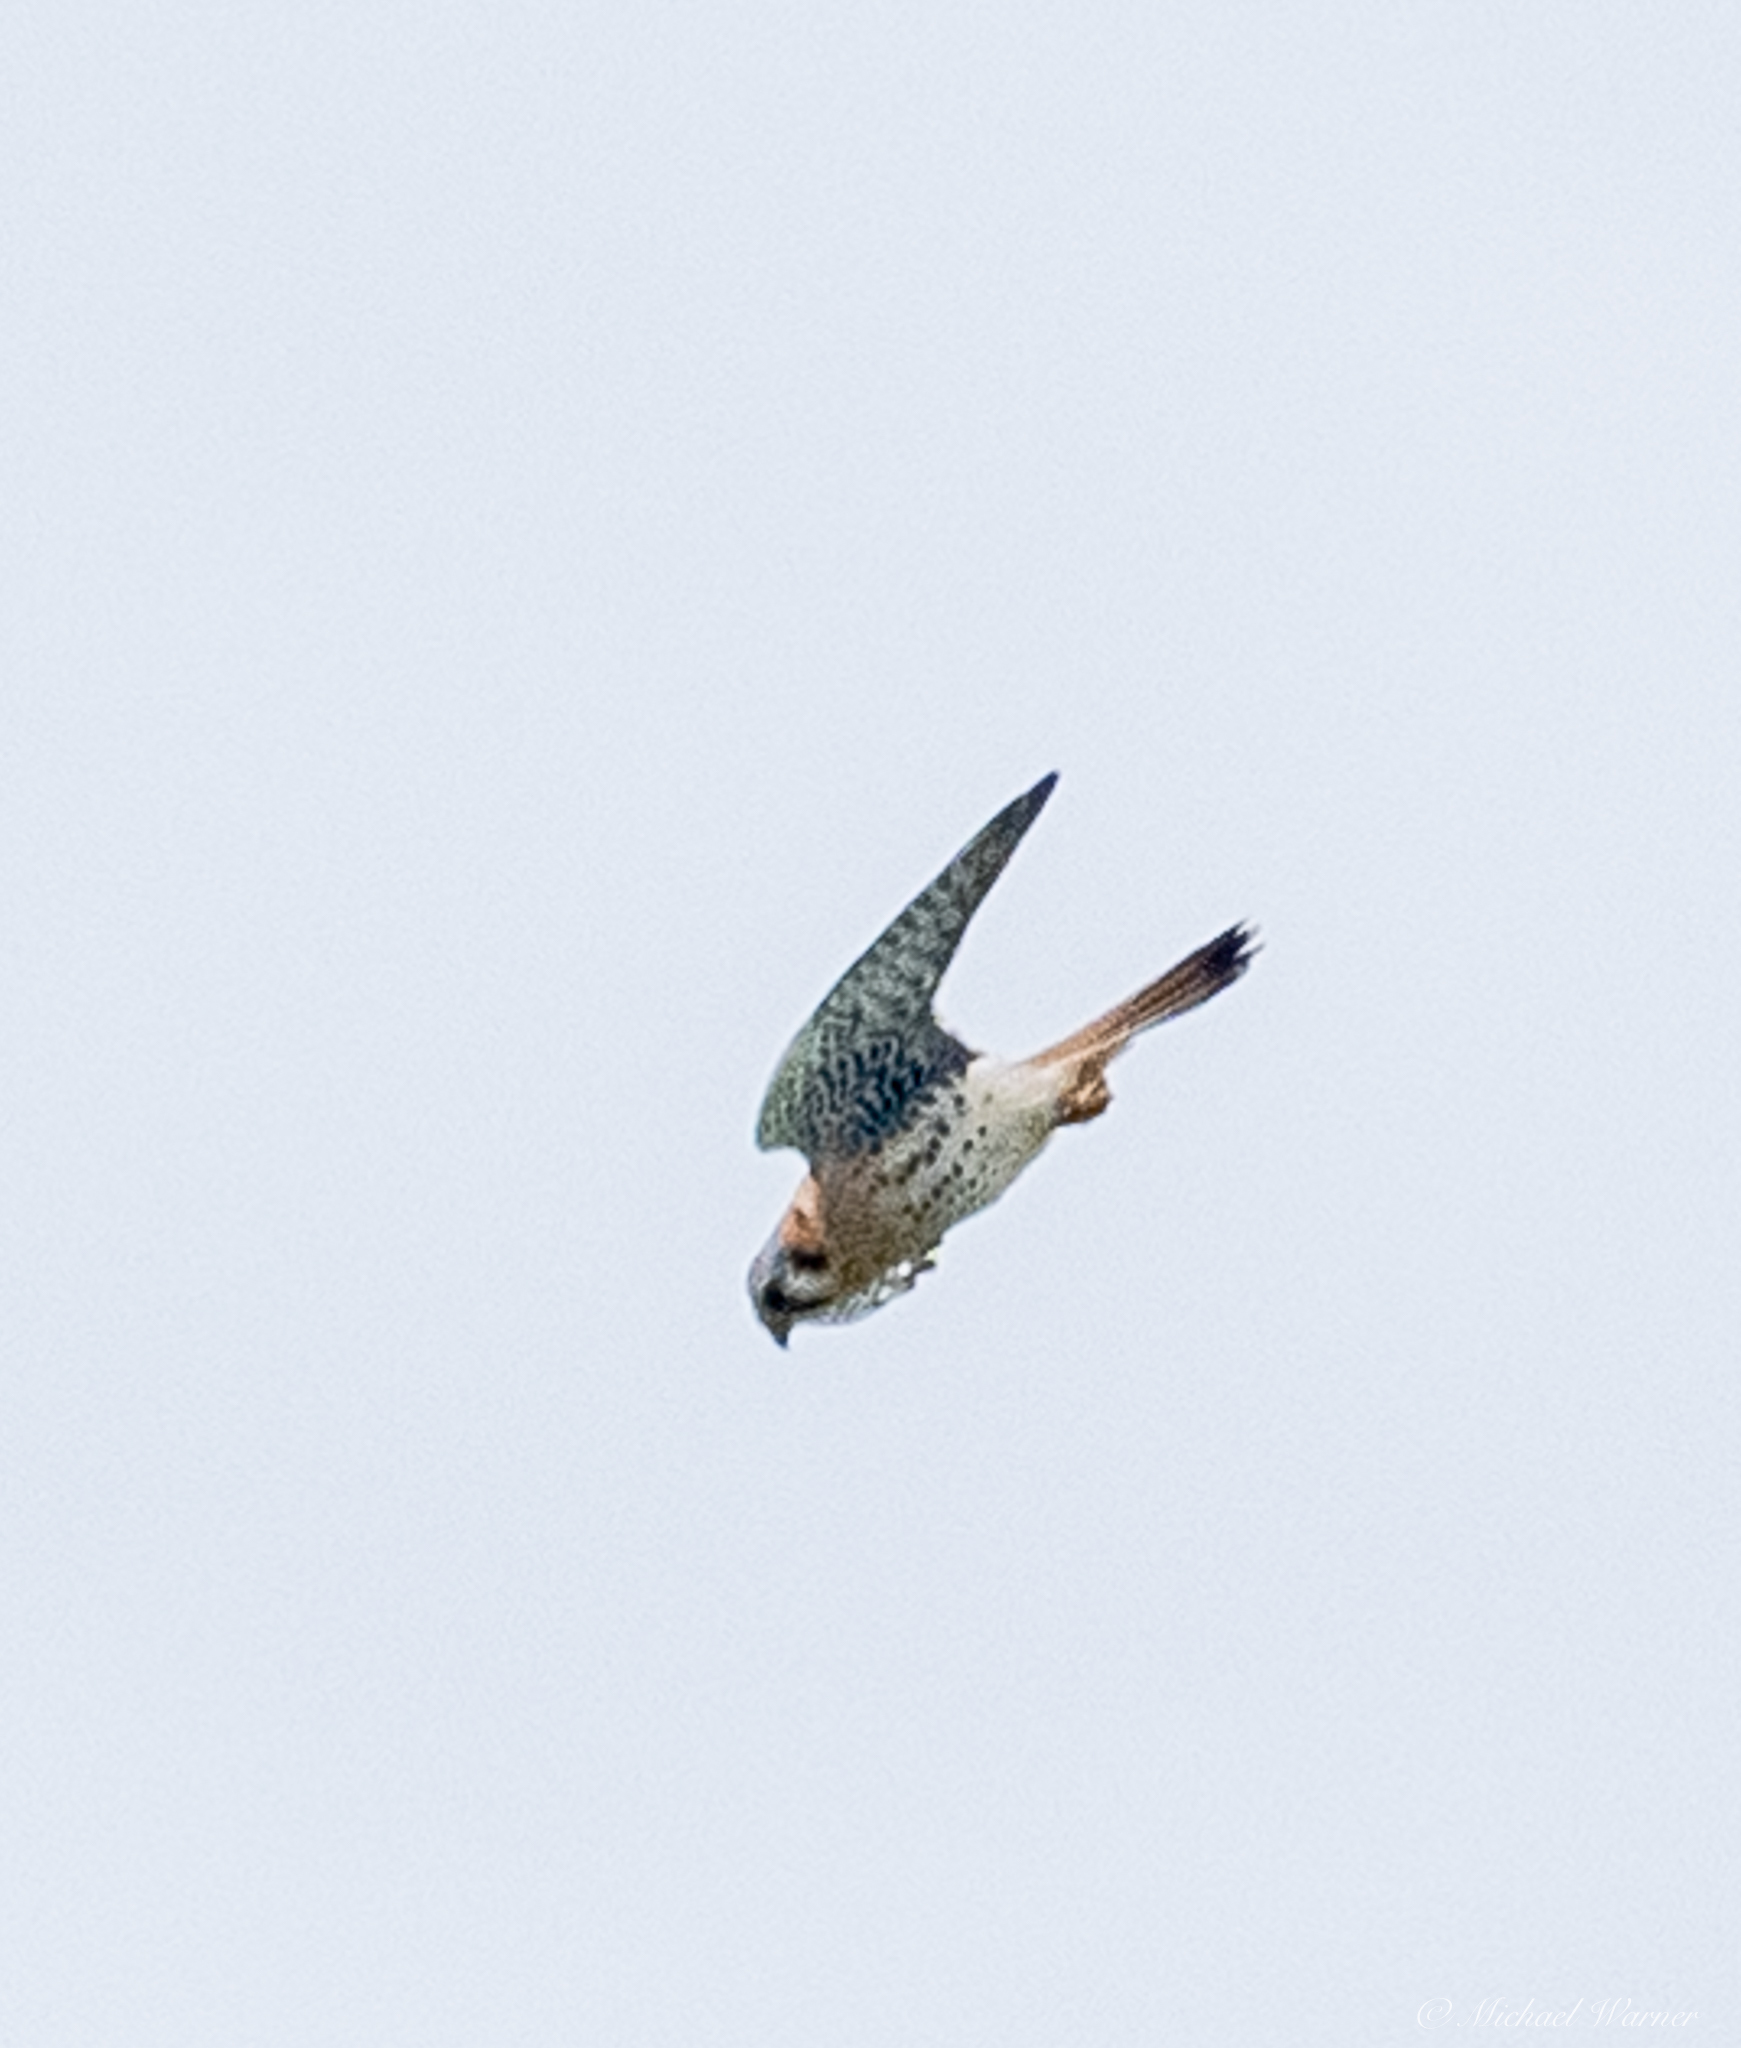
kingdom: Animalia
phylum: Chordata
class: Aves
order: Falconiformes
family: Falconidae
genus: Falco
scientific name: Falco sparverius
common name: American kestrel
